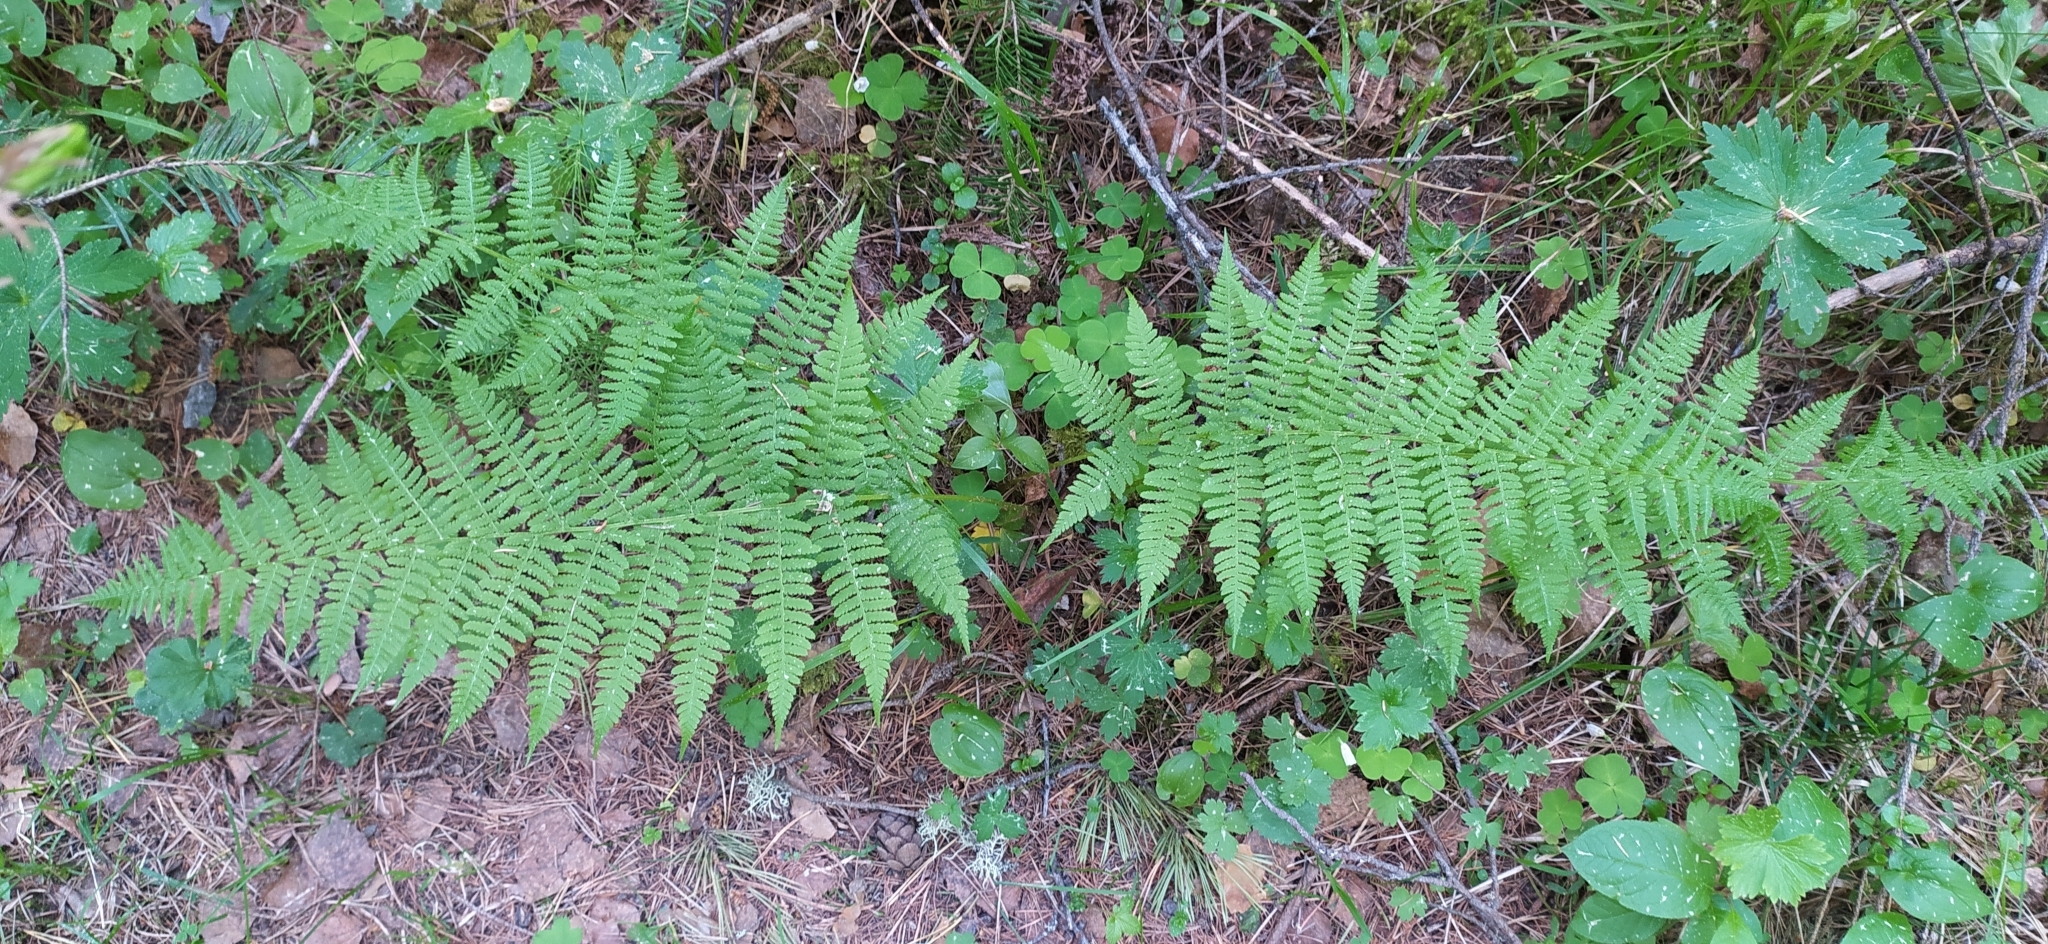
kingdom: Plantae
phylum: Tracheophyta
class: Polypodiopsida
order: Polypodiales
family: Athyriaceae
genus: Athyrium
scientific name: Athyrium filix-femina
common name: Lady fern
